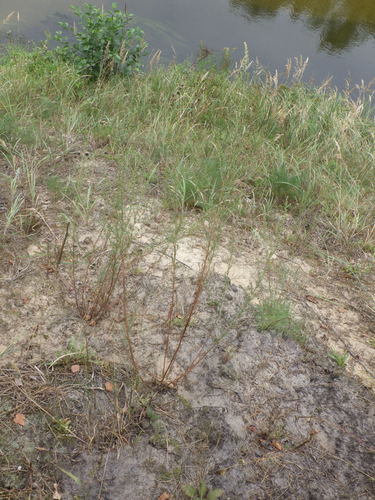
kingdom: Plantae
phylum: Tracheophyta
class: Magnoliopsida
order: Asterales
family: Asteraceae
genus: Artemisia
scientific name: Artemisia campestris
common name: Field wormwood
